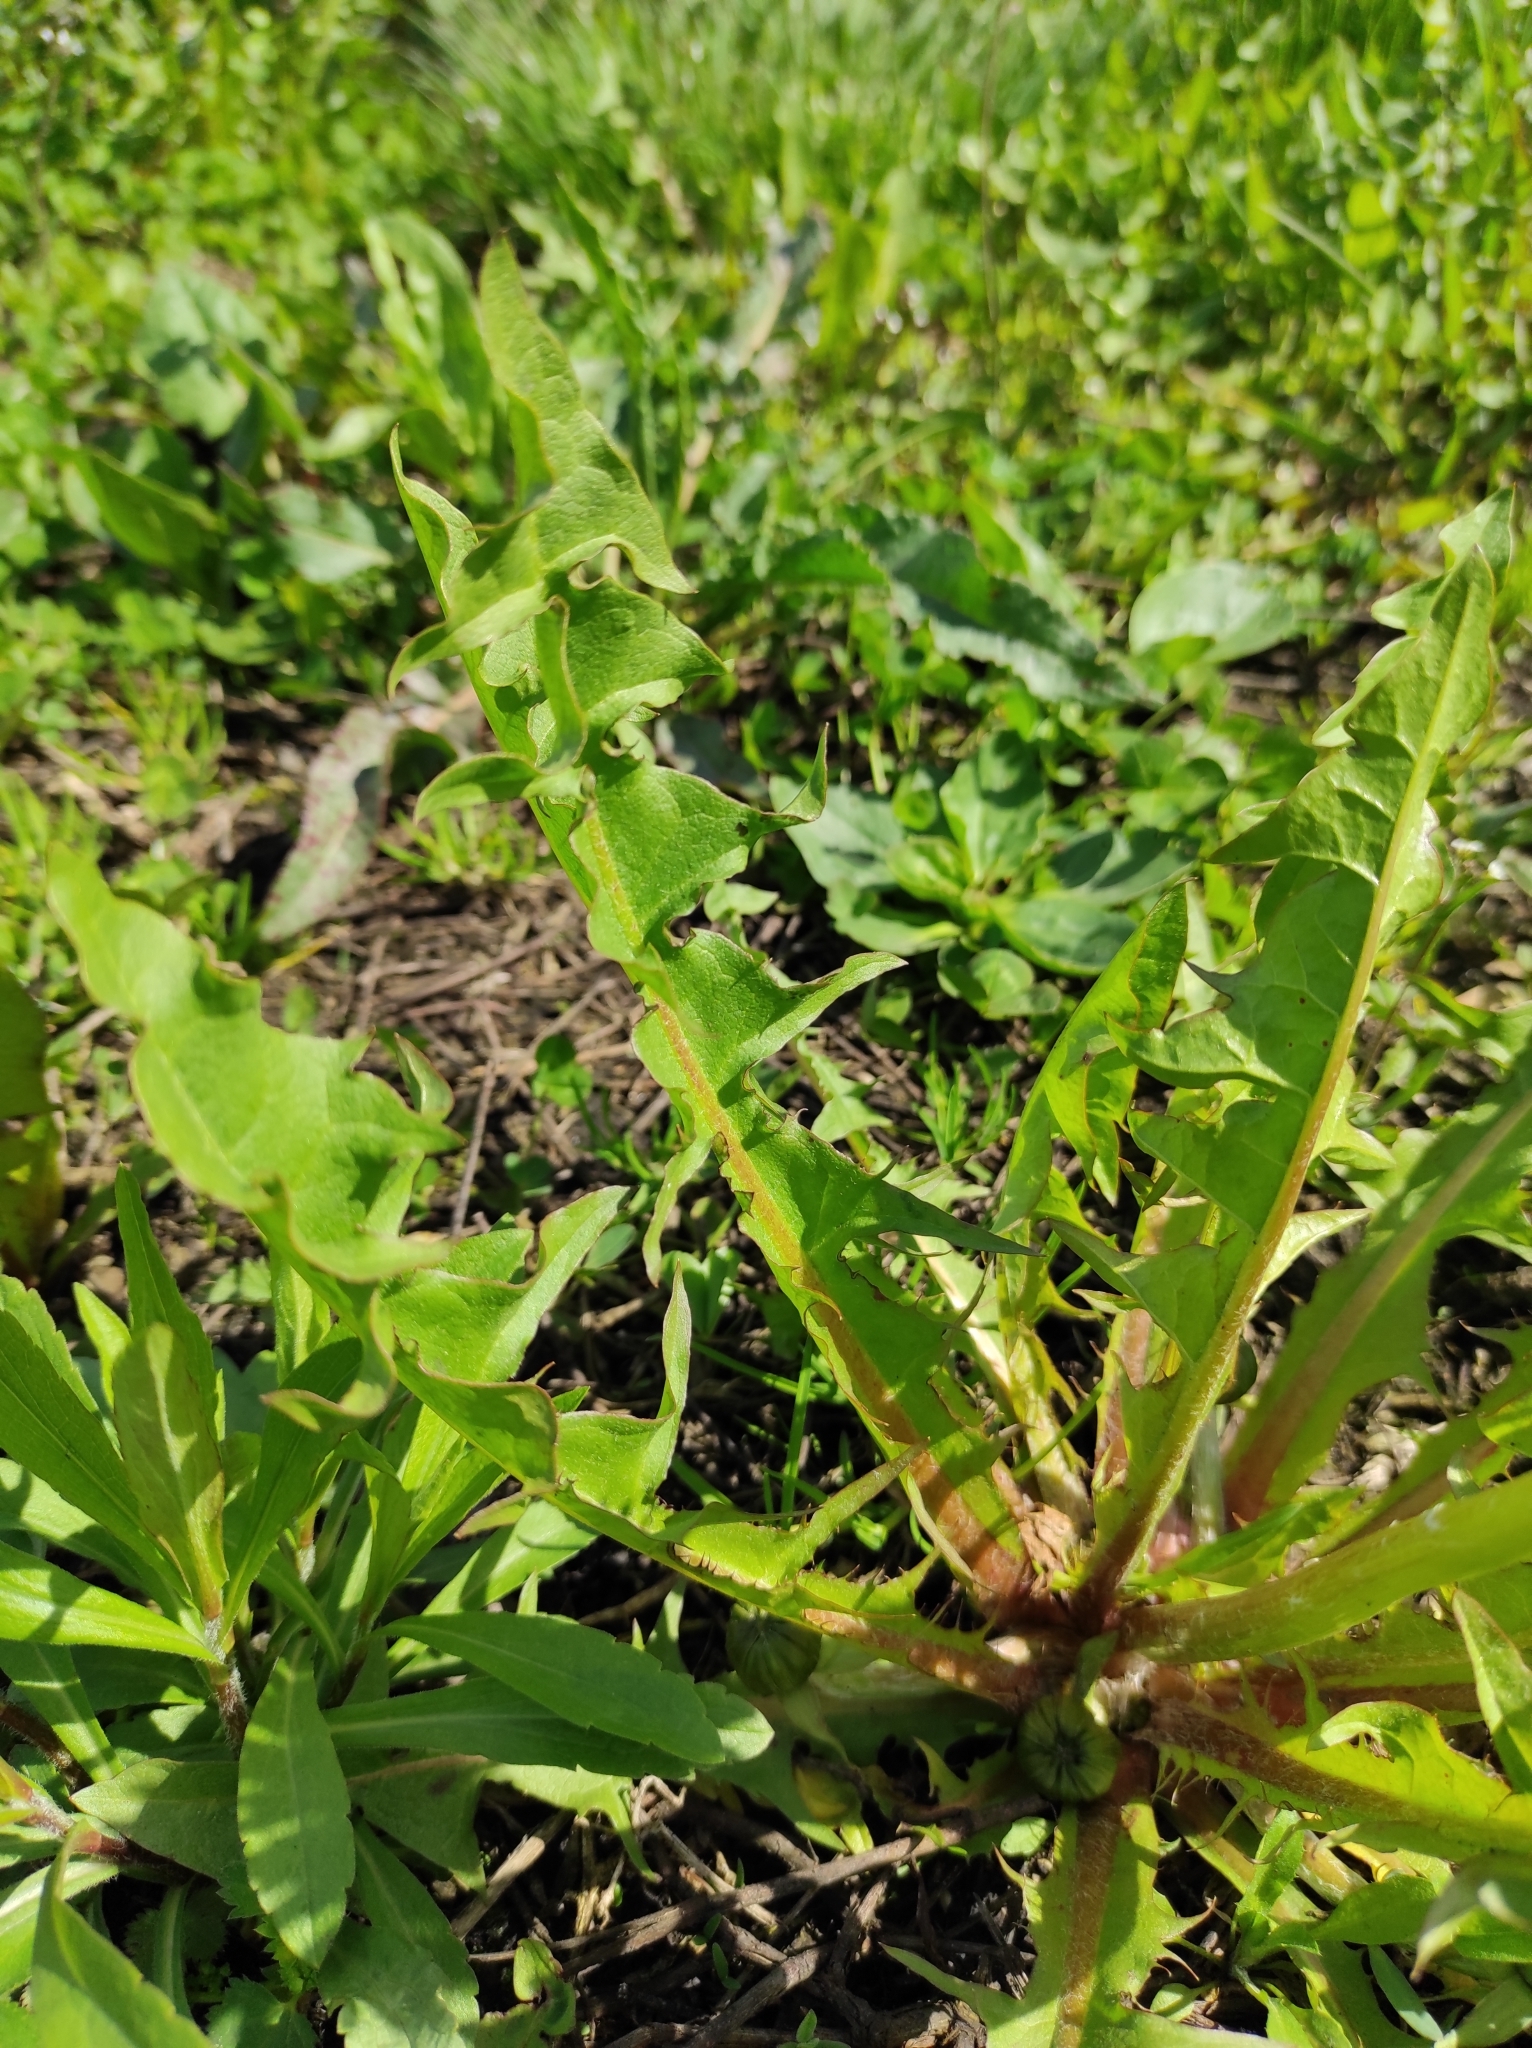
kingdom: Plantae
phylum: Tracheophyta
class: Magnoliopsida
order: Asterales
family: Asteraceae
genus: Taraxacum
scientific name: Taraxacum officinale
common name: Common dandelion
